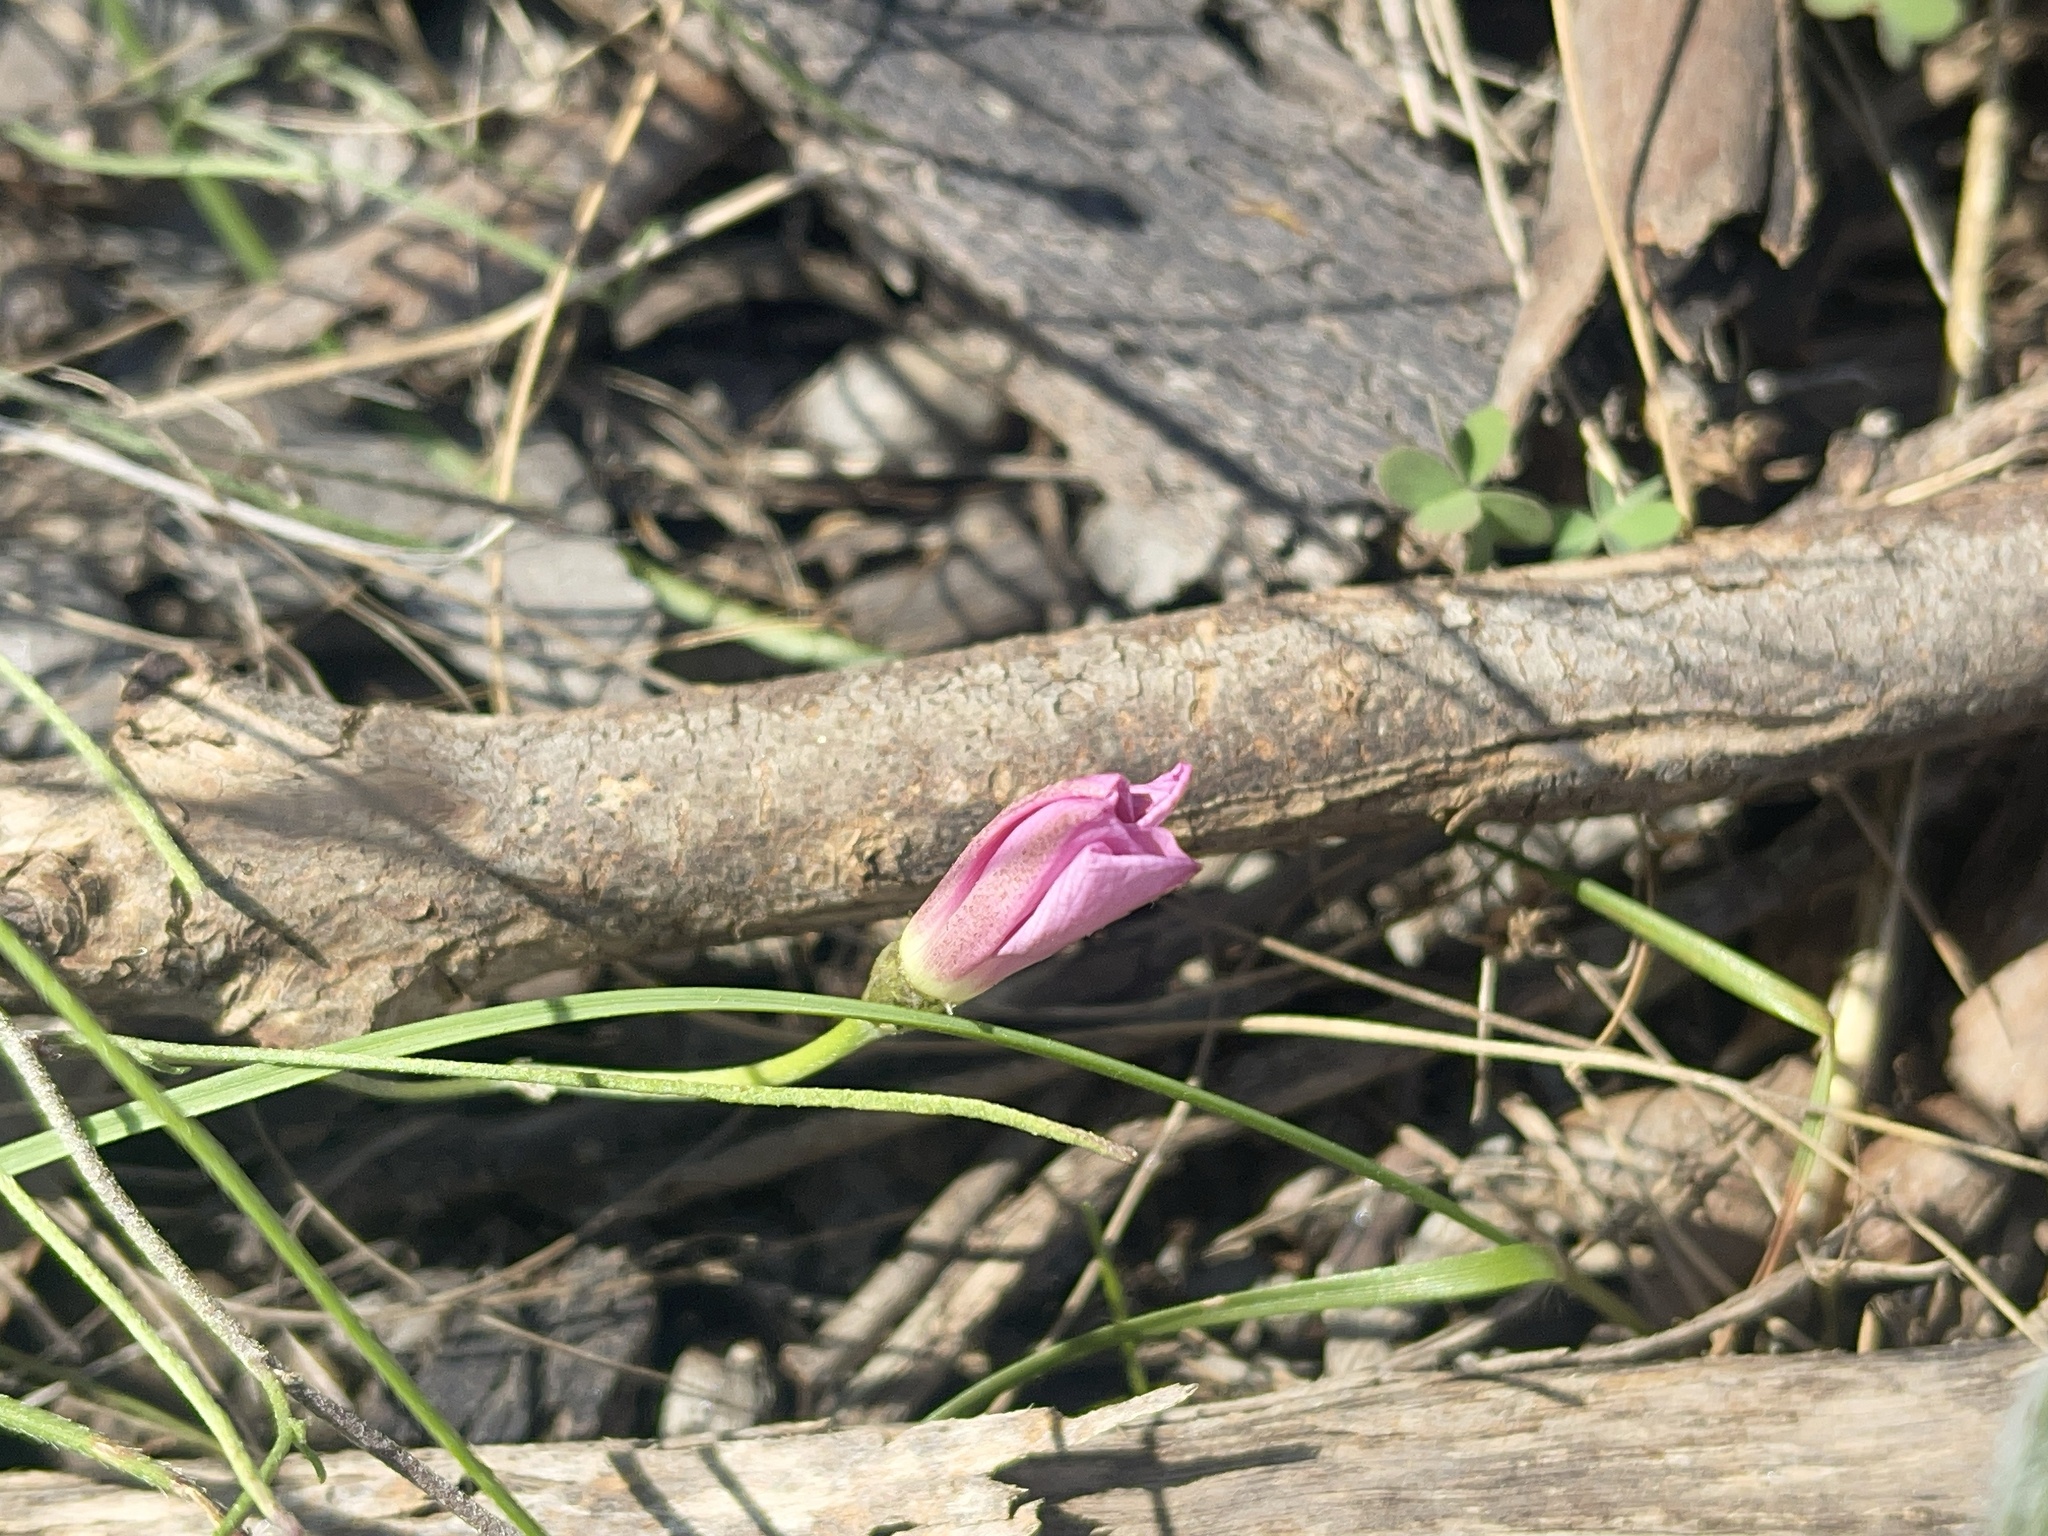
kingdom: Plantae
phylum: Tracheophyta
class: Magnoliopsida
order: Solanales
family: Convolvulaceae
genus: Convolvulus
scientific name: Convolvulus angustissimus
